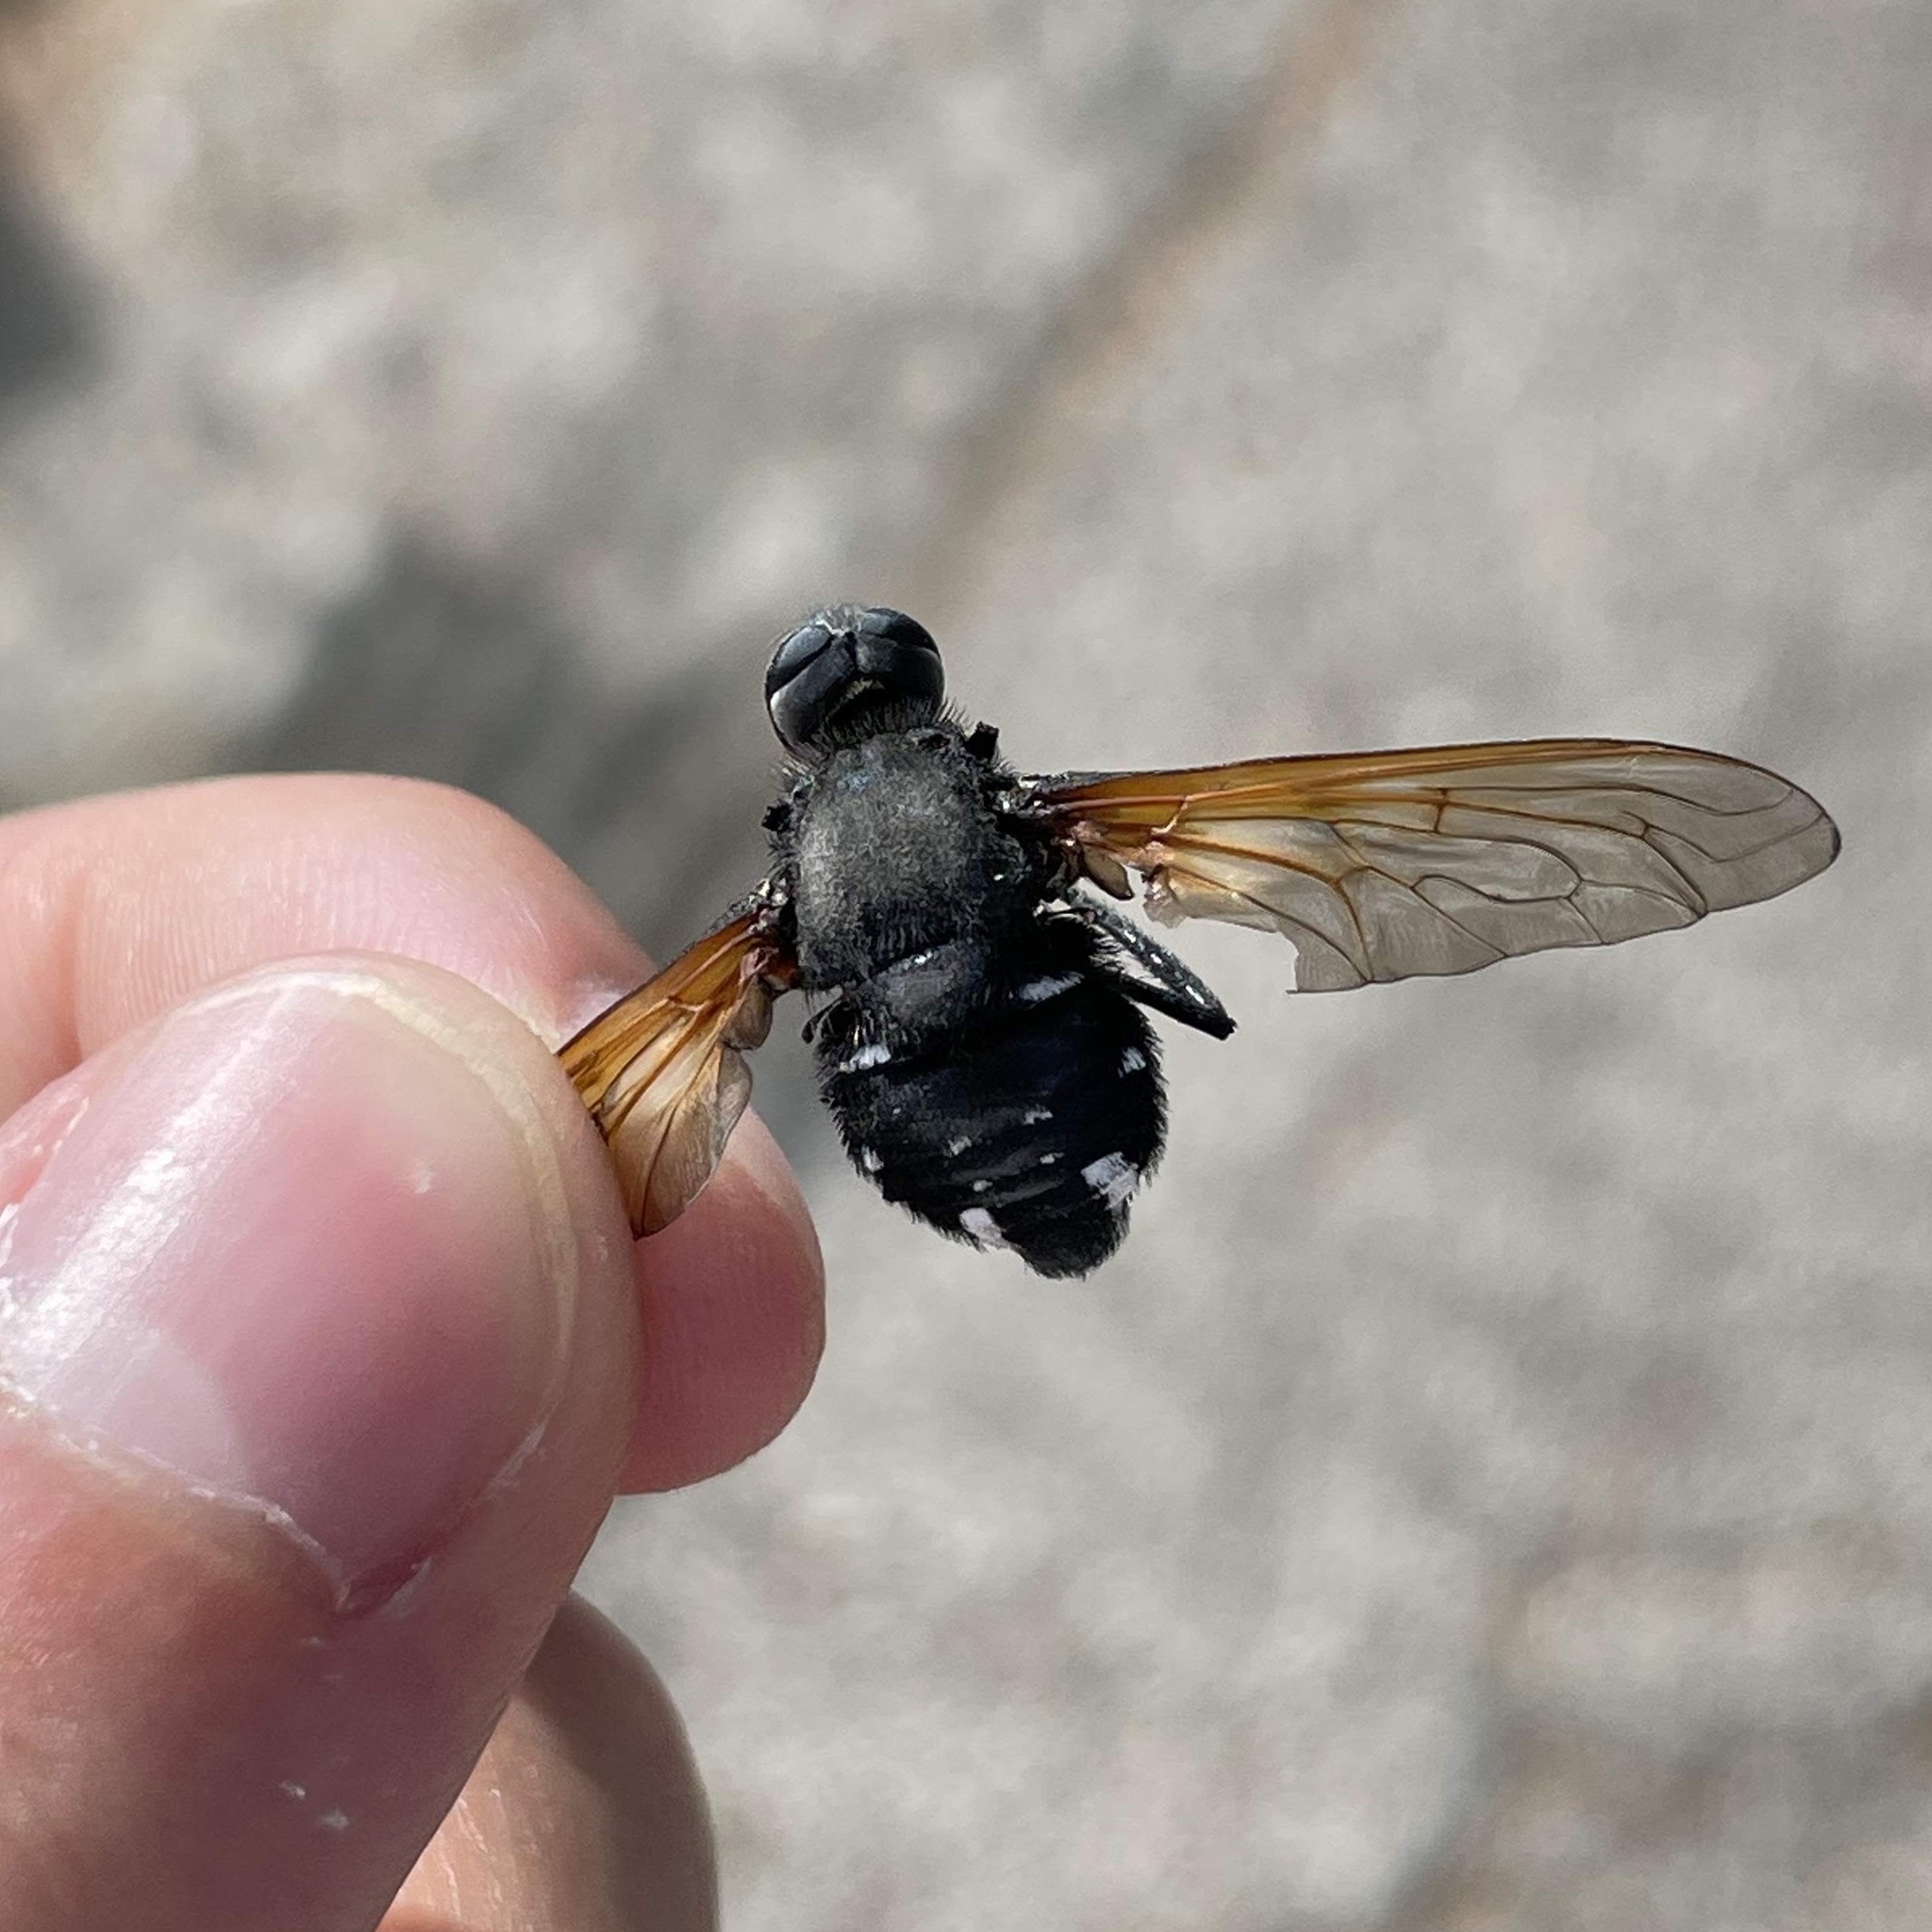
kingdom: Animalia
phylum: Arthropoda
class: Insecta
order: Diptera
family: Bombyliidae
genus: Satyramoeba
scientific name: Satyramoeba hetrusca
